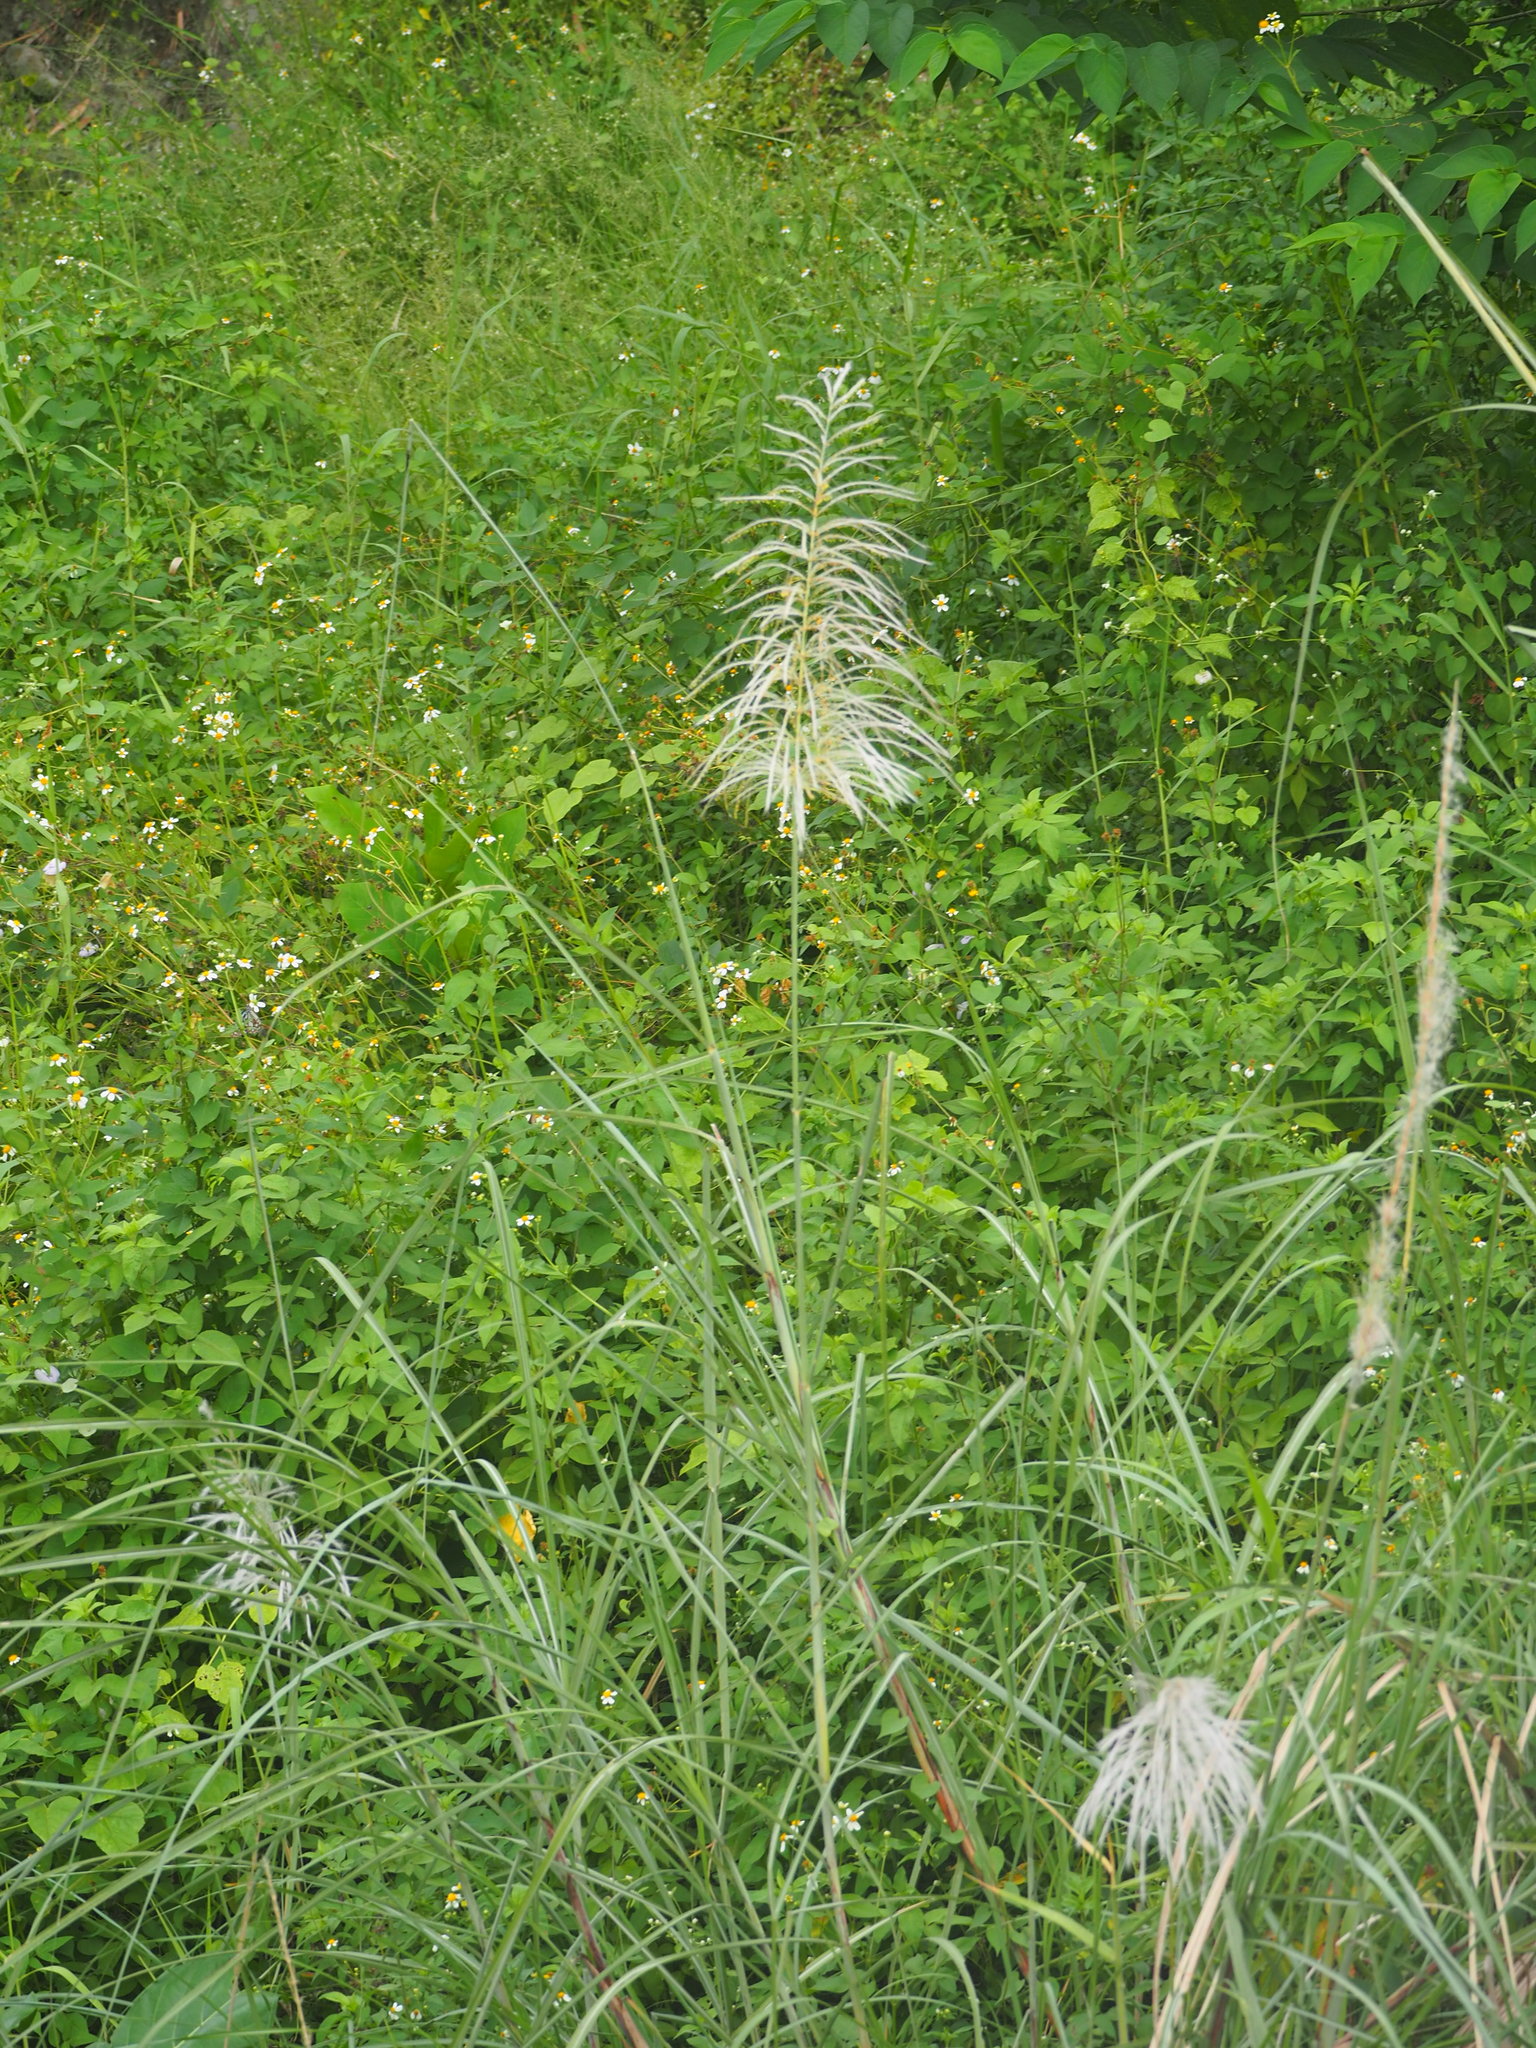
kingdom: Plantae
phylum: Tracheophyta
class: Liliopsida
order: Poales
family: Poaceae
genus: Saccharum
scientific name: Saccharum spontaneum
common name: Wild sugarcane
